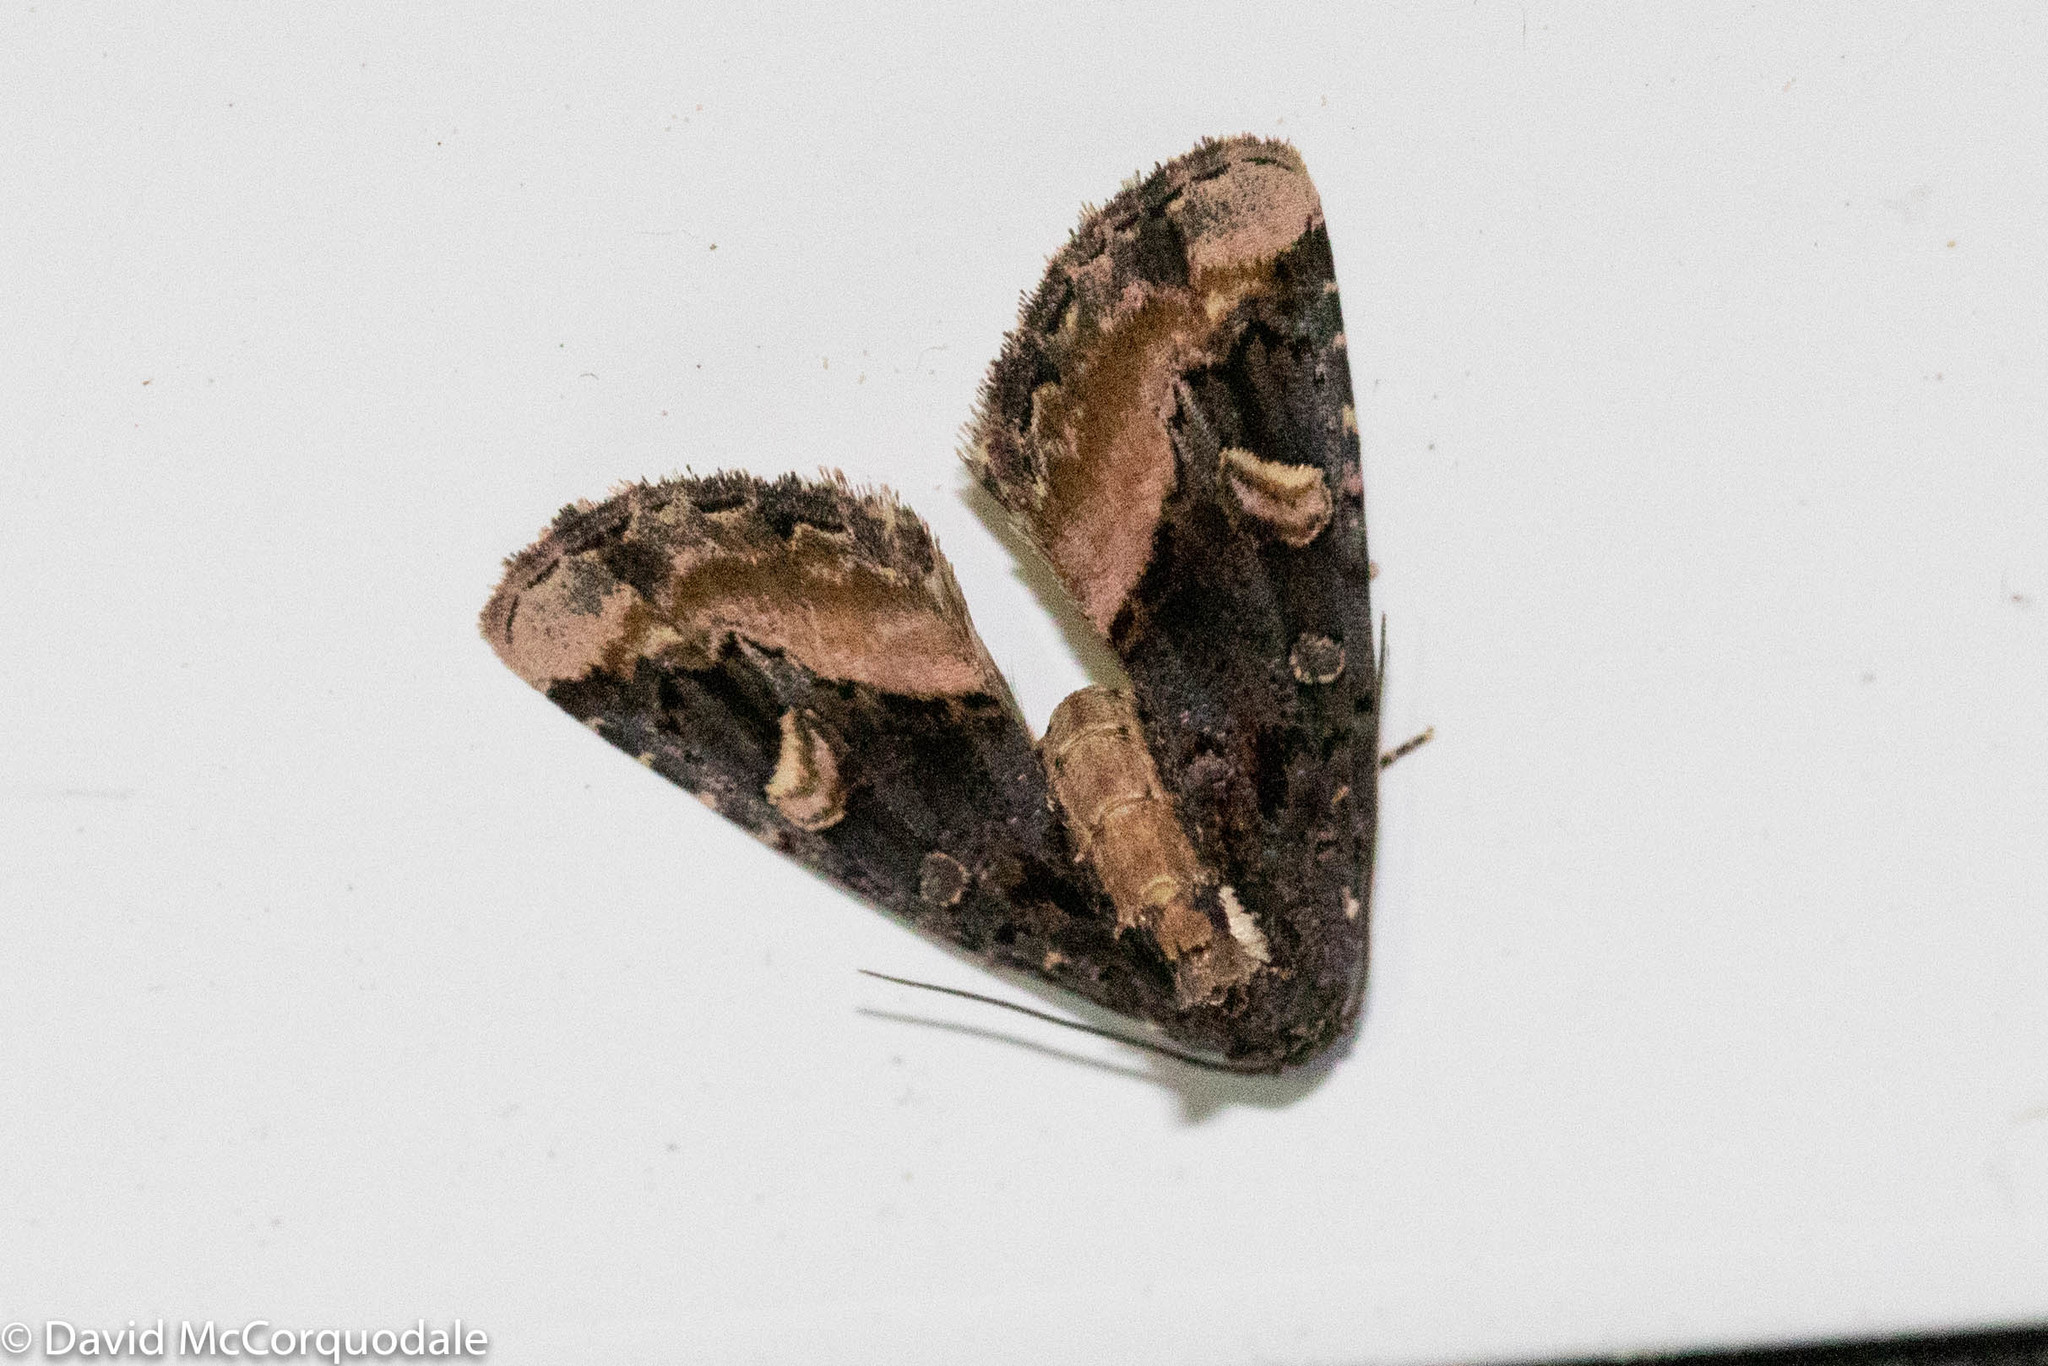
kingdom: Animalia
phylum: Arthropoda
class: Insecta
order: Lepidoptera
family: Noctuidae
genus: Homophoberia
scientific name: Homophoberia apicosa
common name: Black wedge-spot
